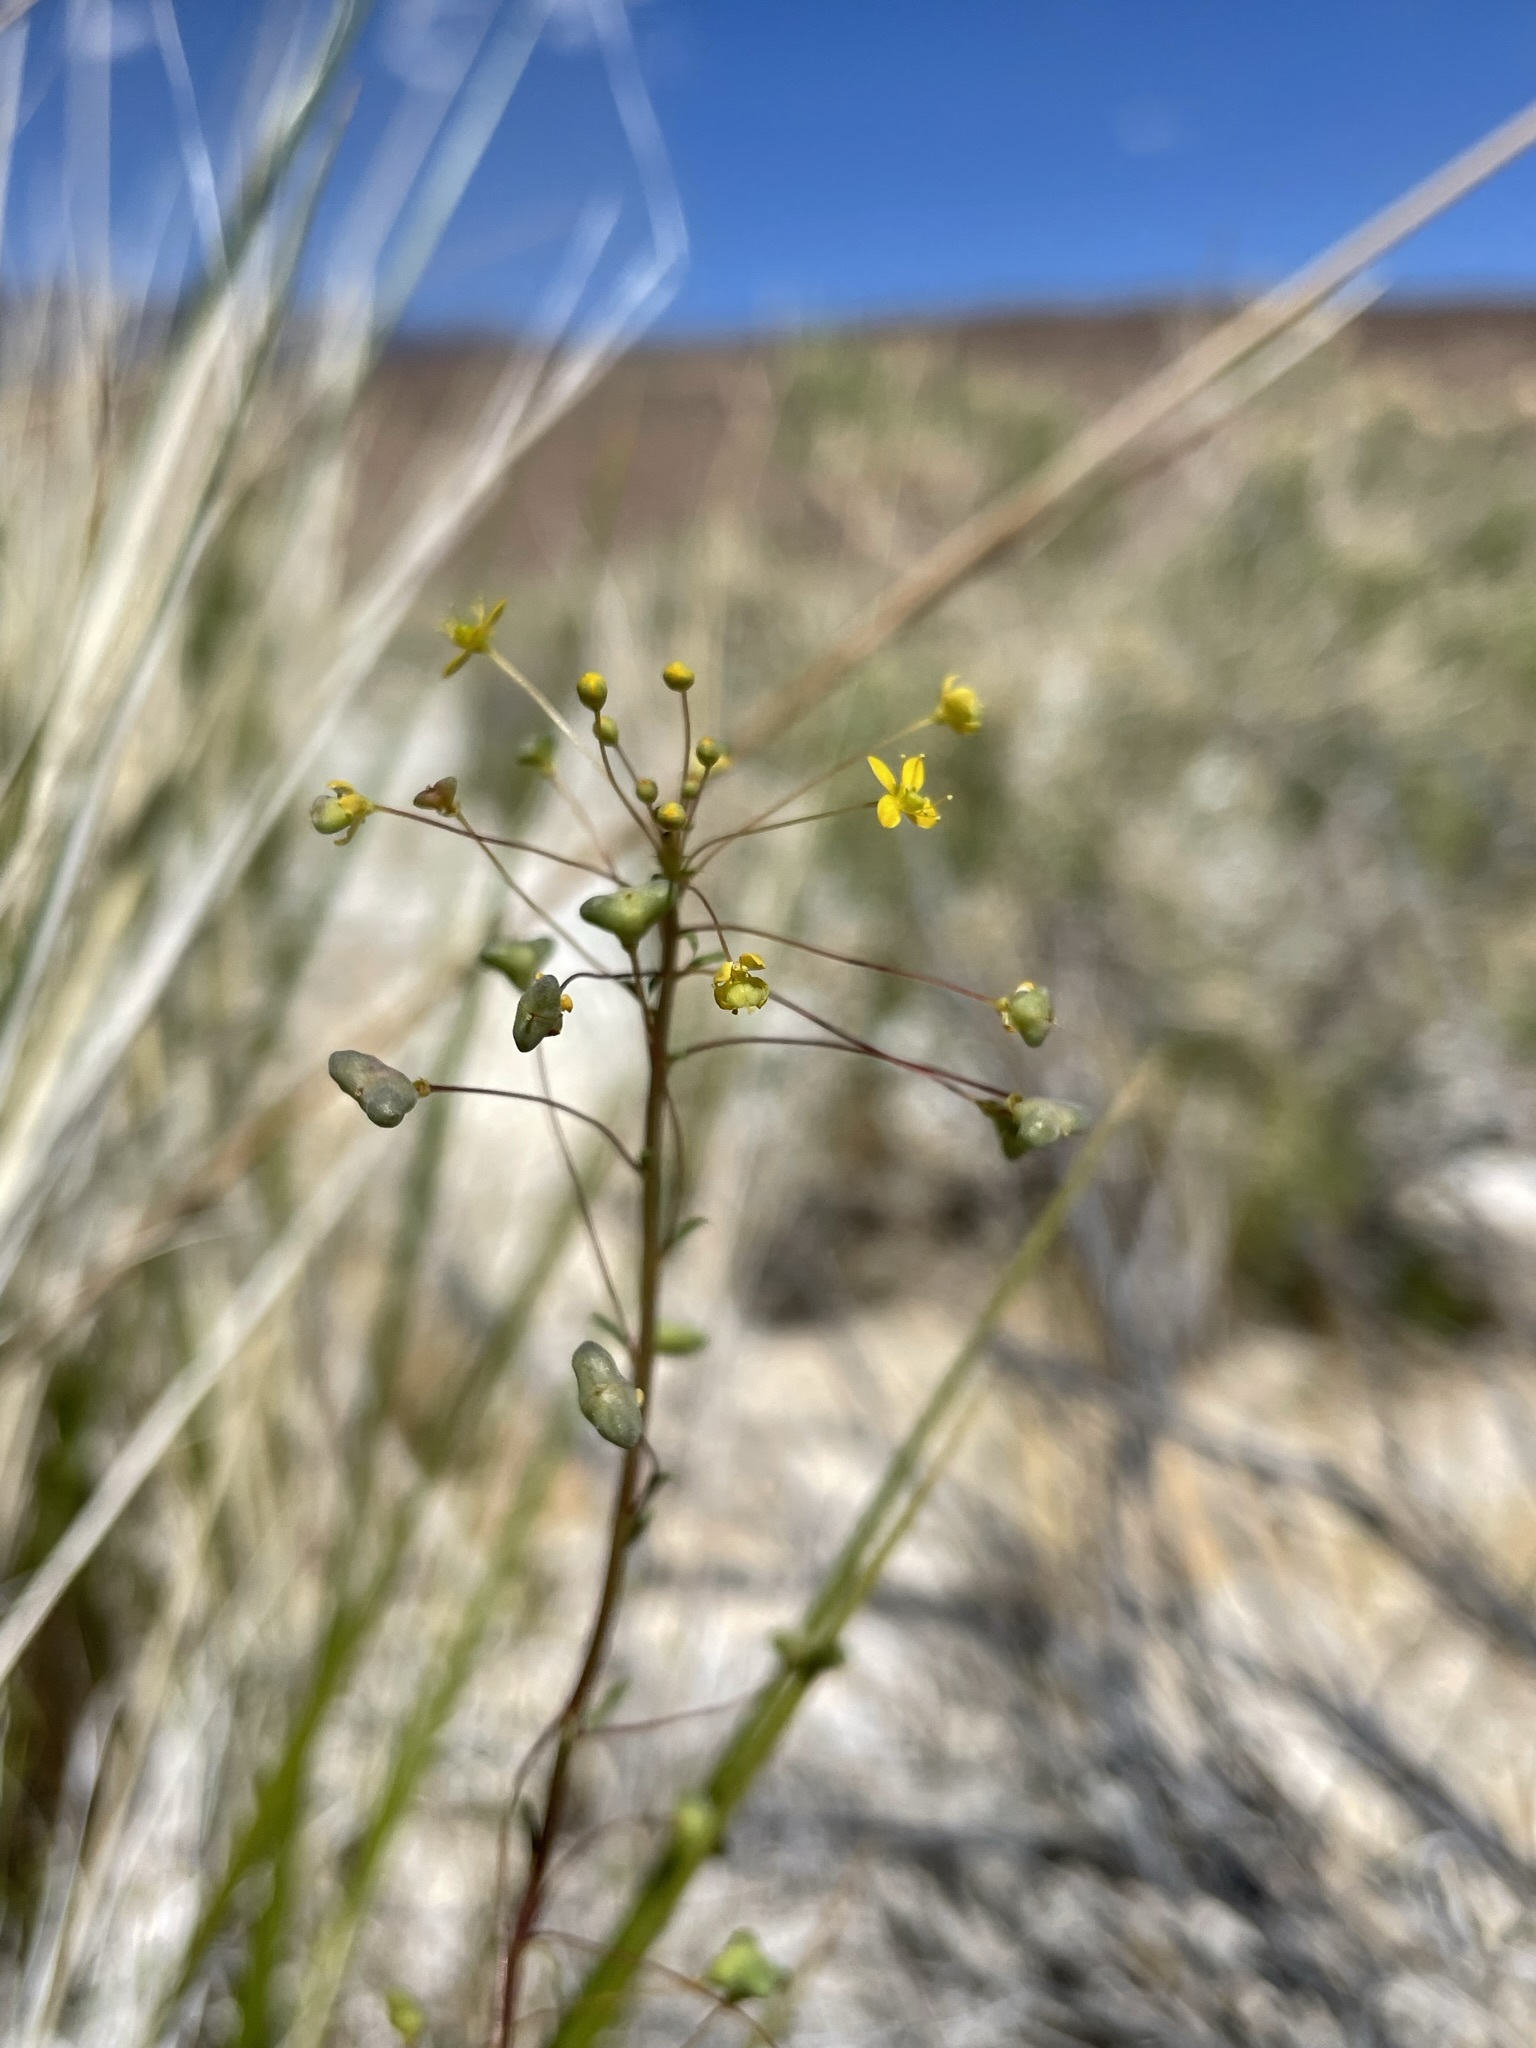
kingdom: Plantae
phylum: Tracheophyta
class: Magnoliopsida
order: Brassicales
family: Cleomaceae
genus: Cleomella
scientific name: Cleomella parviflora
